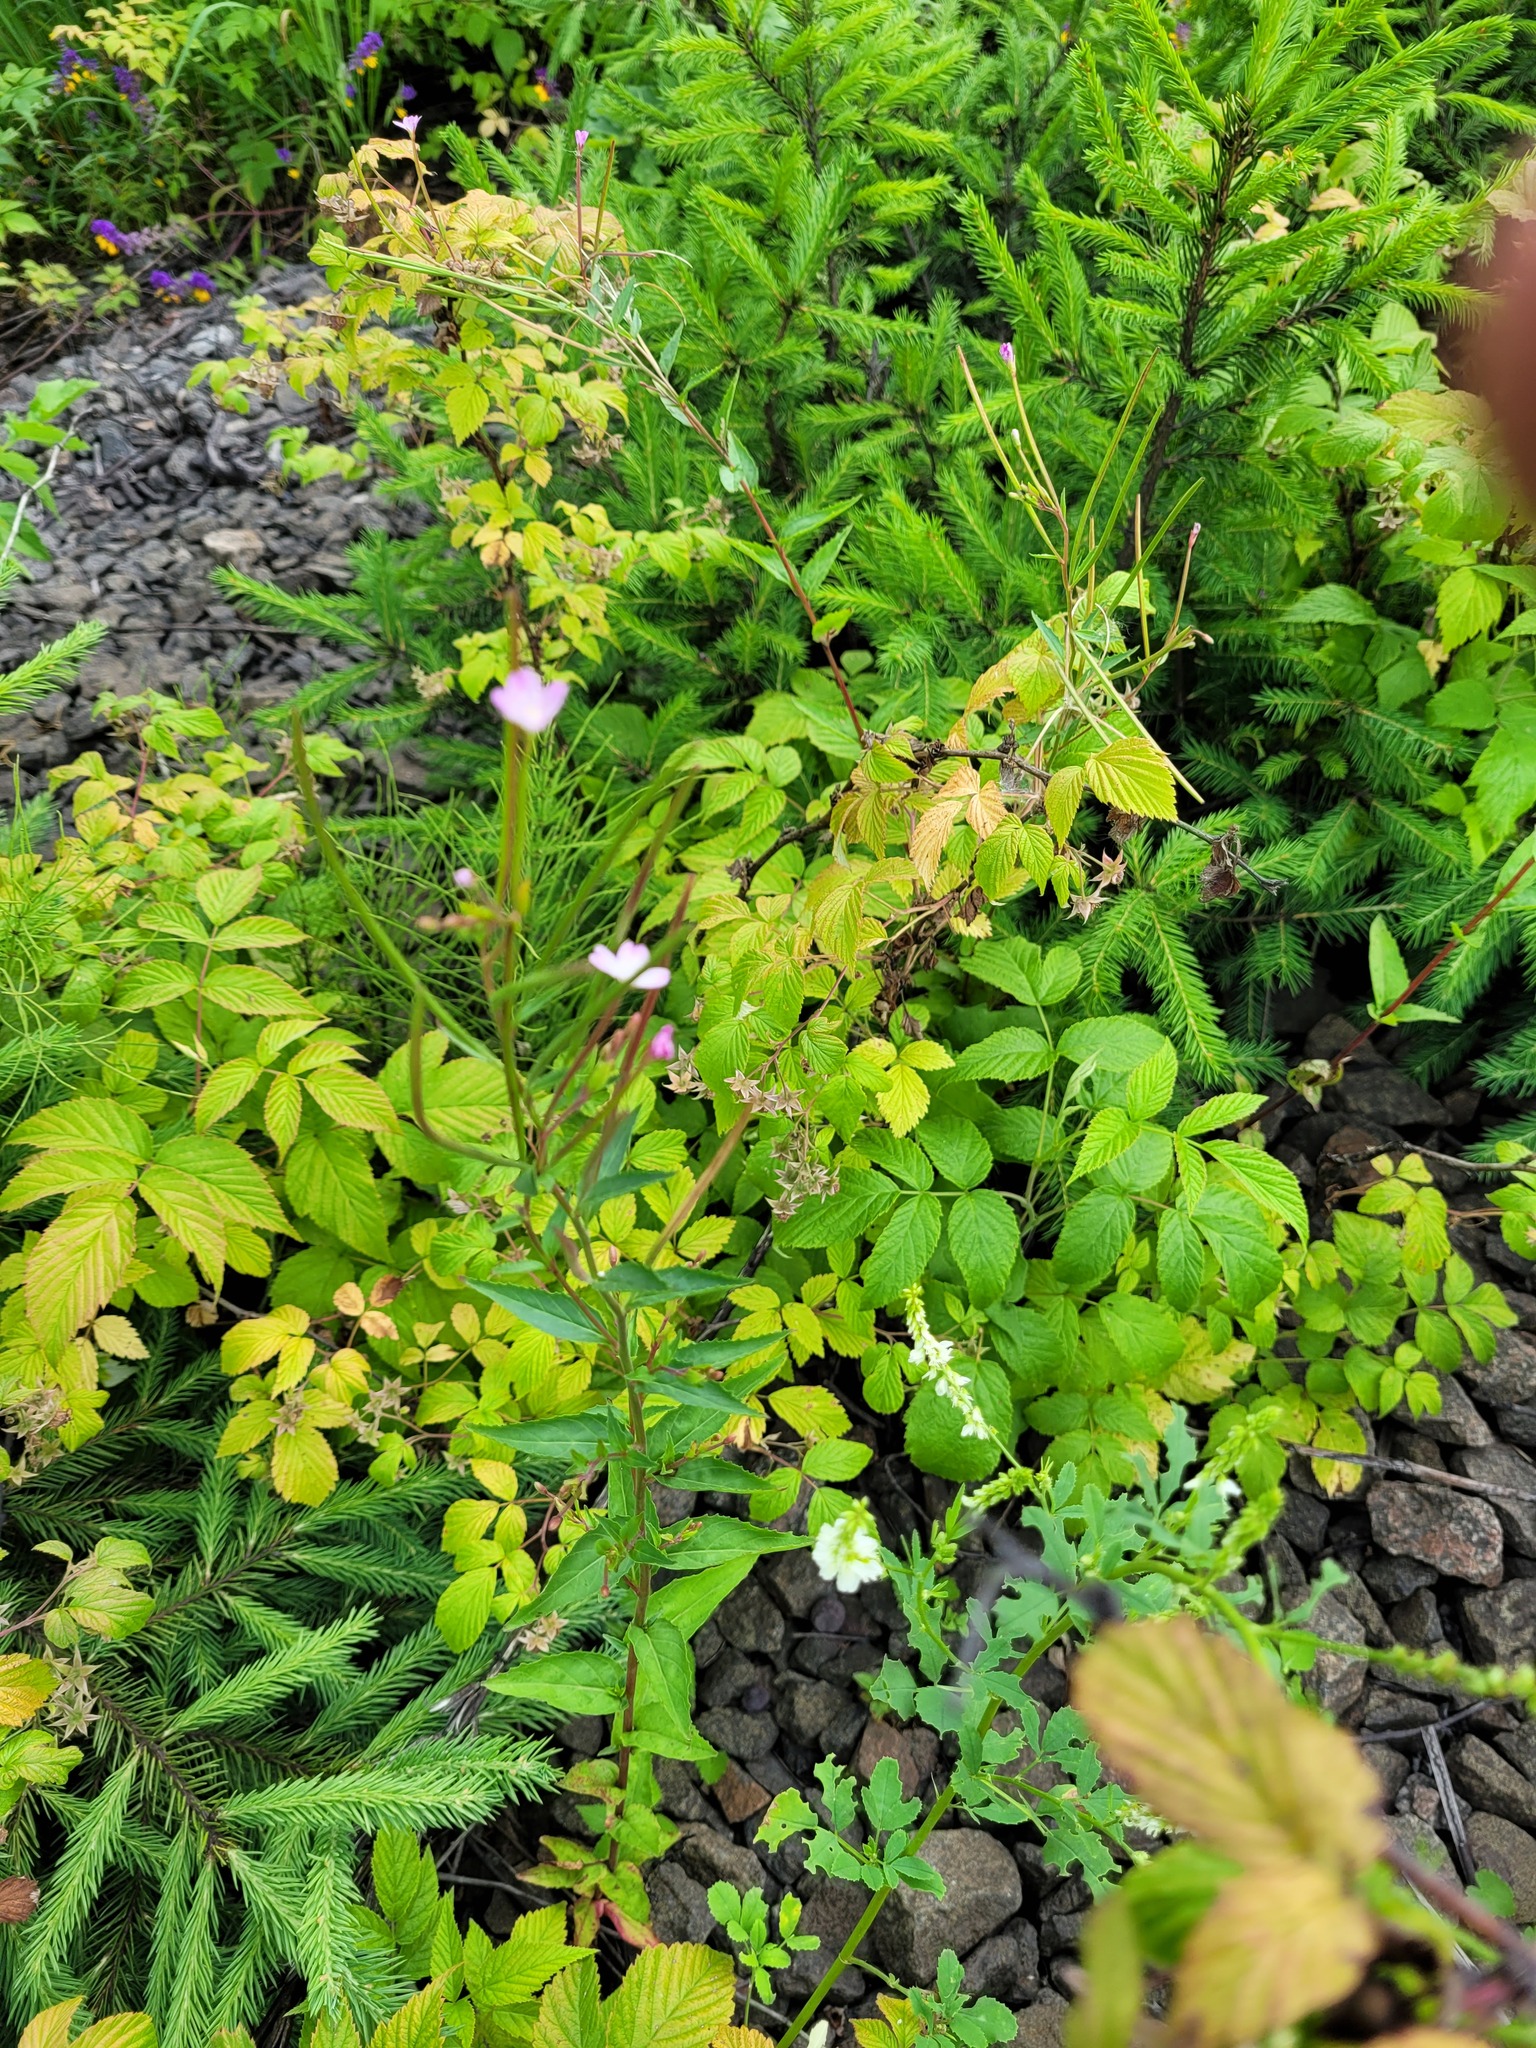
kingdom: Plantae
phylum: Tracheophyta
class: Magnoliopsida
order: Myrtales
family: Onagraceae
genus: Epilobium
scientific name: Epilobium montanum
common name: Broad-leaved willowherb
